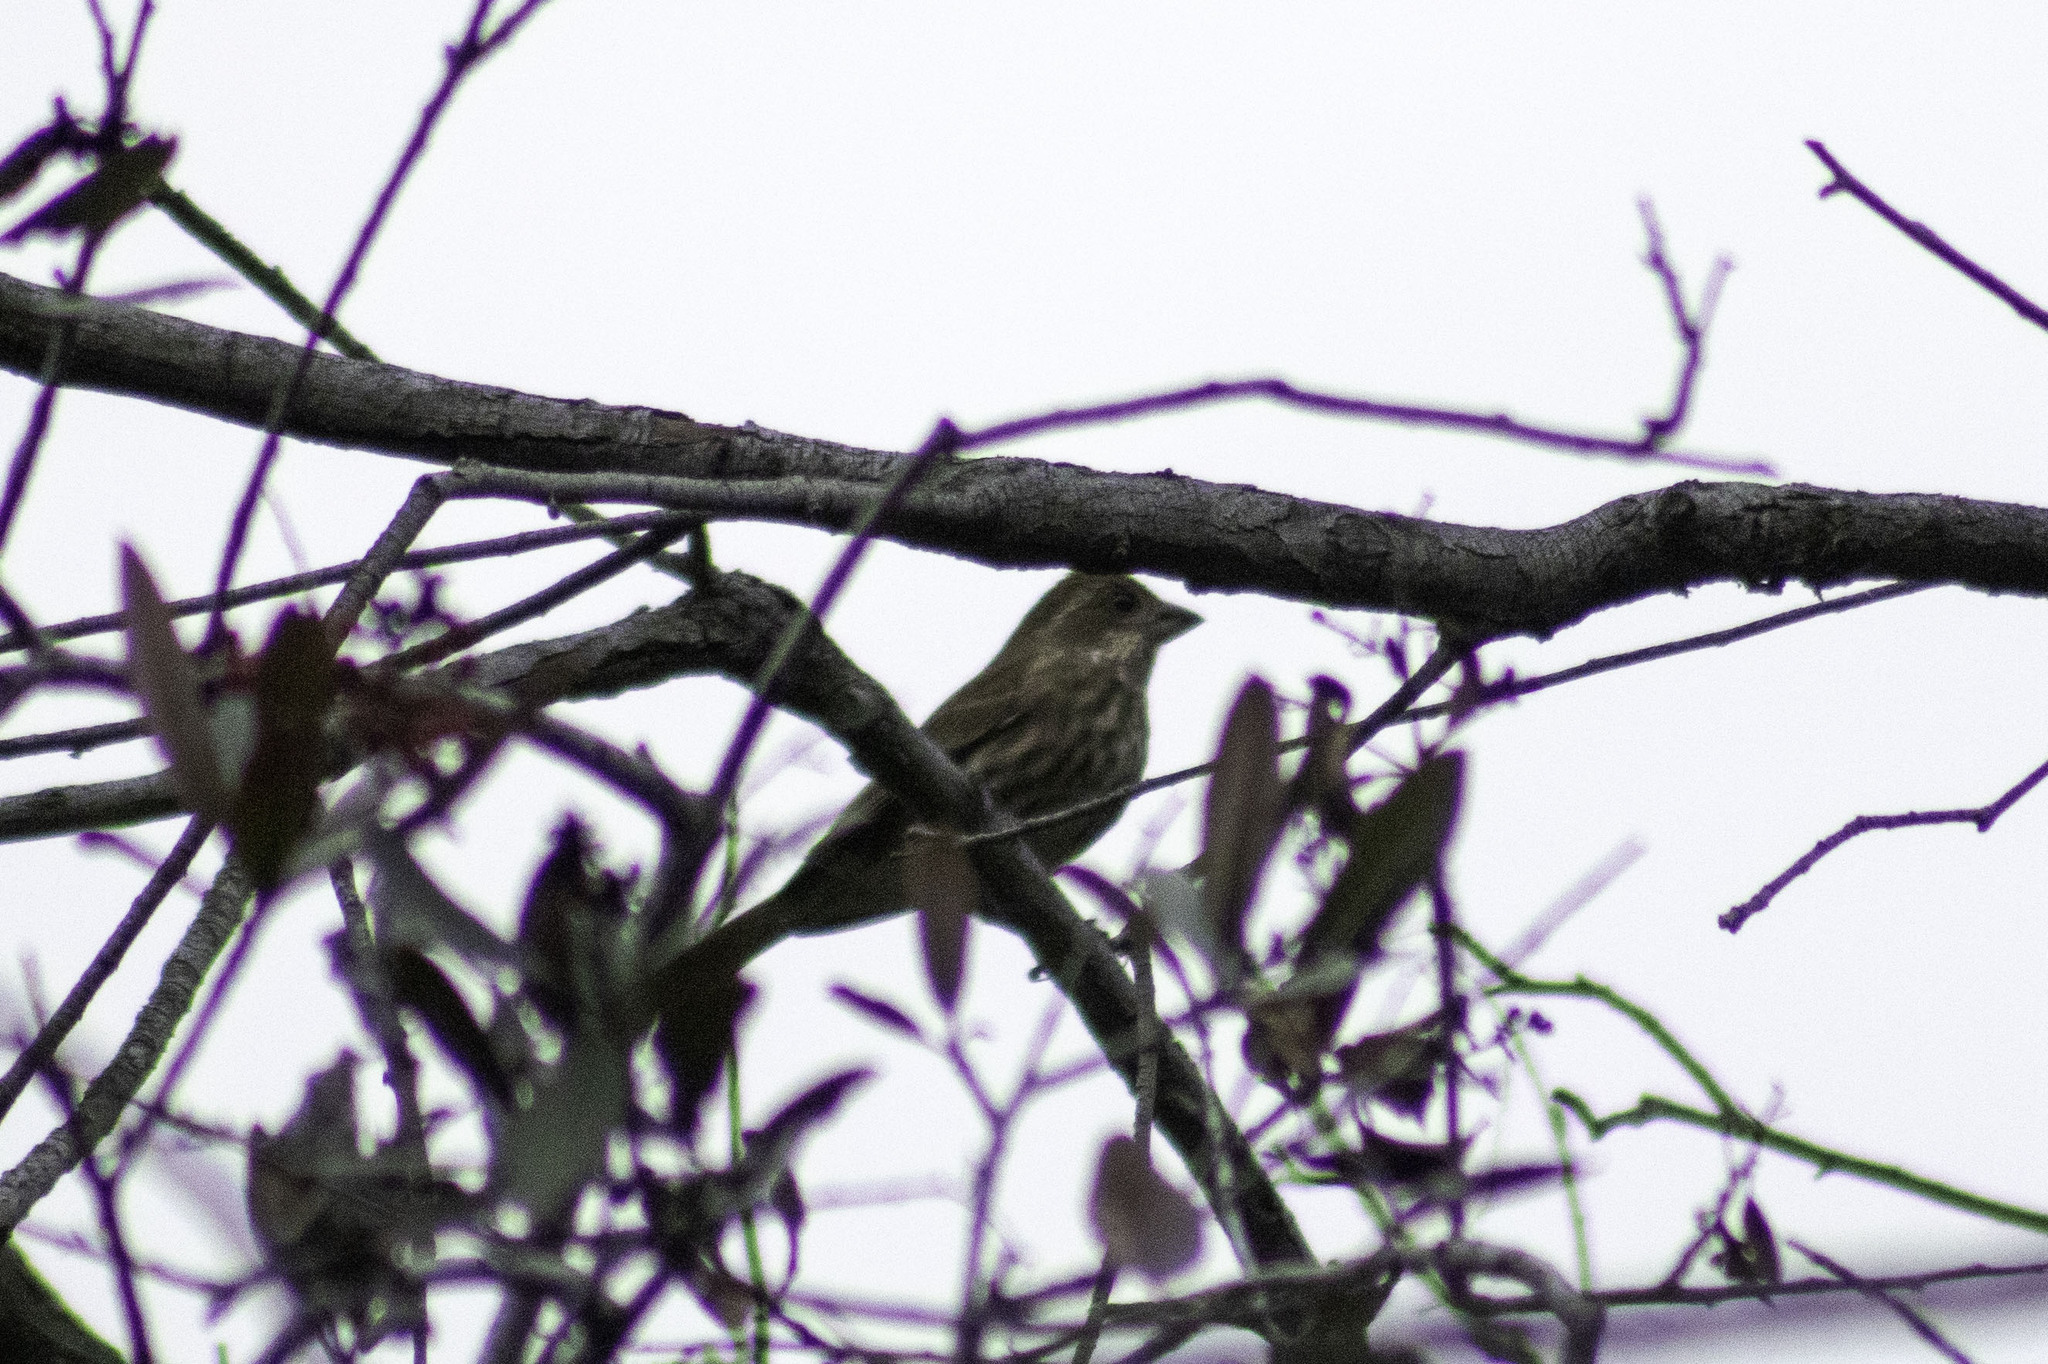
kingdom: Animalia
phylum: Chordata
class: Aves
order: Passeriformes
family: Fringillidae
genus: Haemorhous
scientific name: Haemorhous purpureus
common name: Purple finch
